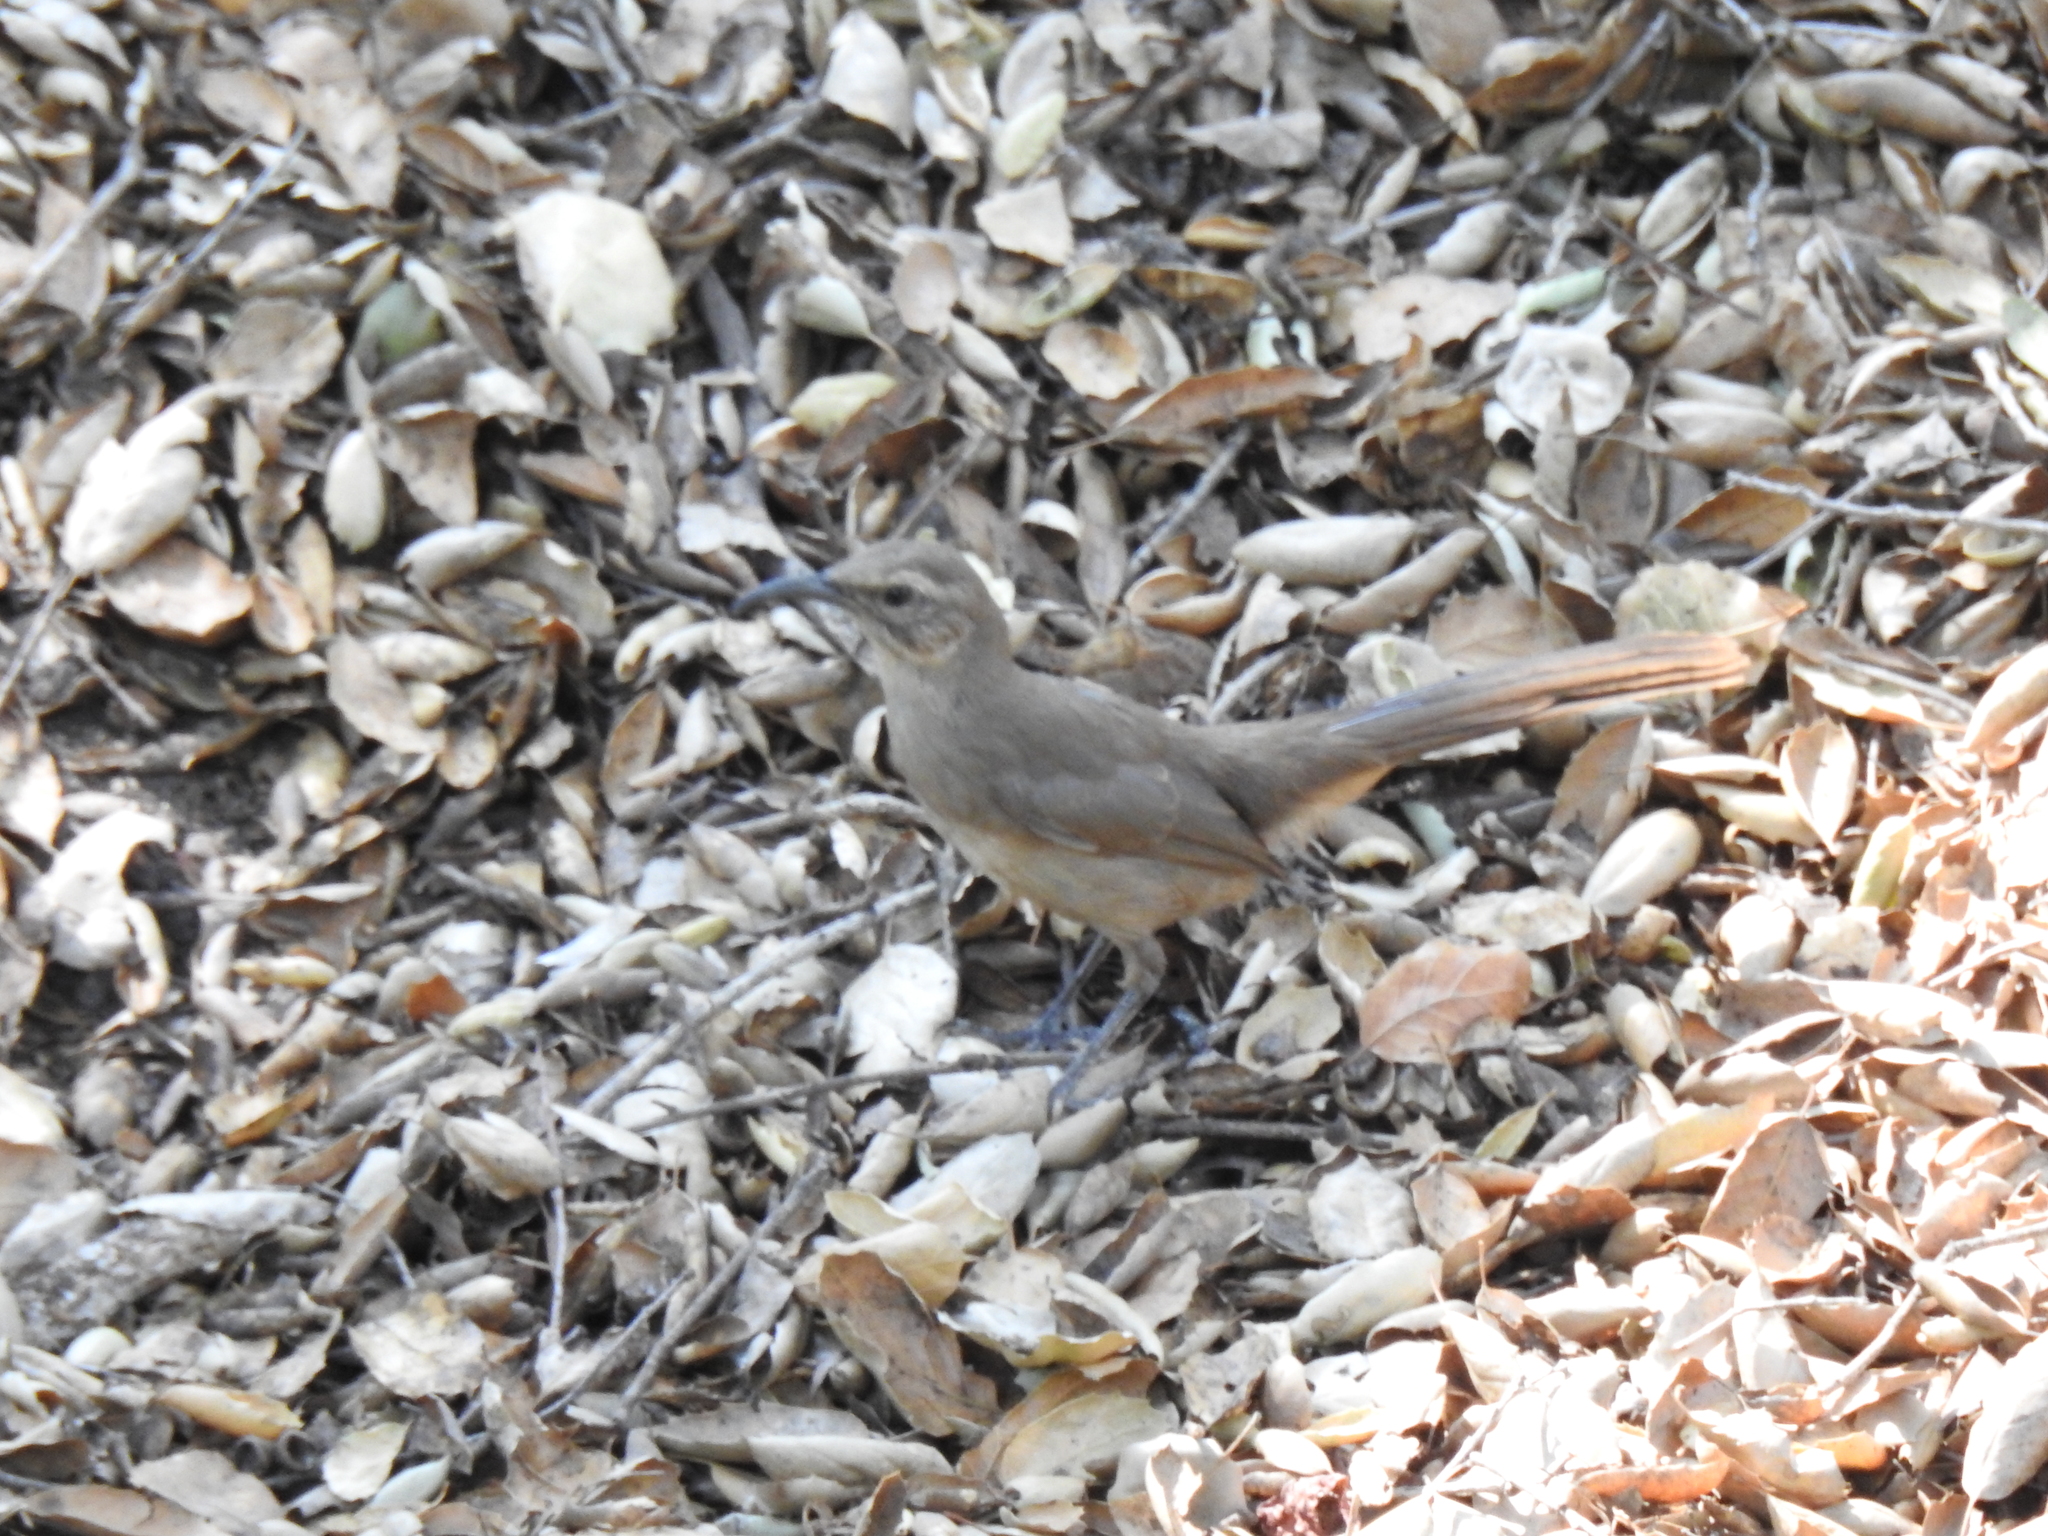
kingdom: Animalia
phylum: Chordata
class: Aves
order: Passeriformes
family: Mimidae
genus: Toxostoma
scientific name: Toxostoma redivivum
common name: California thrasher
